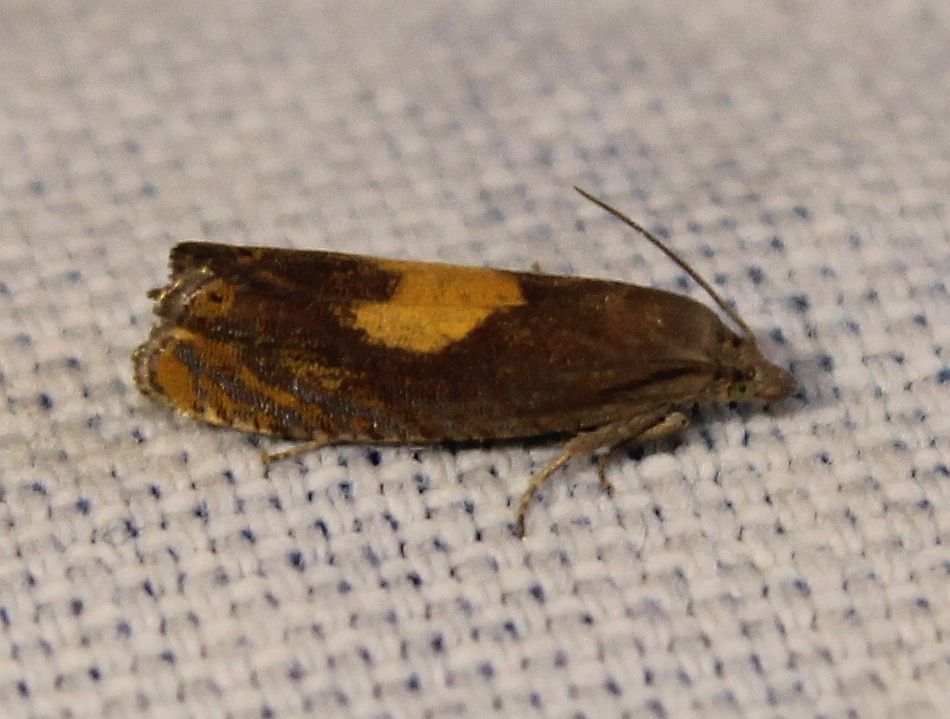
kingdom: Animalia
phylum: Arthropoda
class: Insecta
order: Lepidoptera
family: Tortricidae
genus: Dichrorampha
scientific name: Dichrorampha alpinana
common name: Broad-blotch drill
